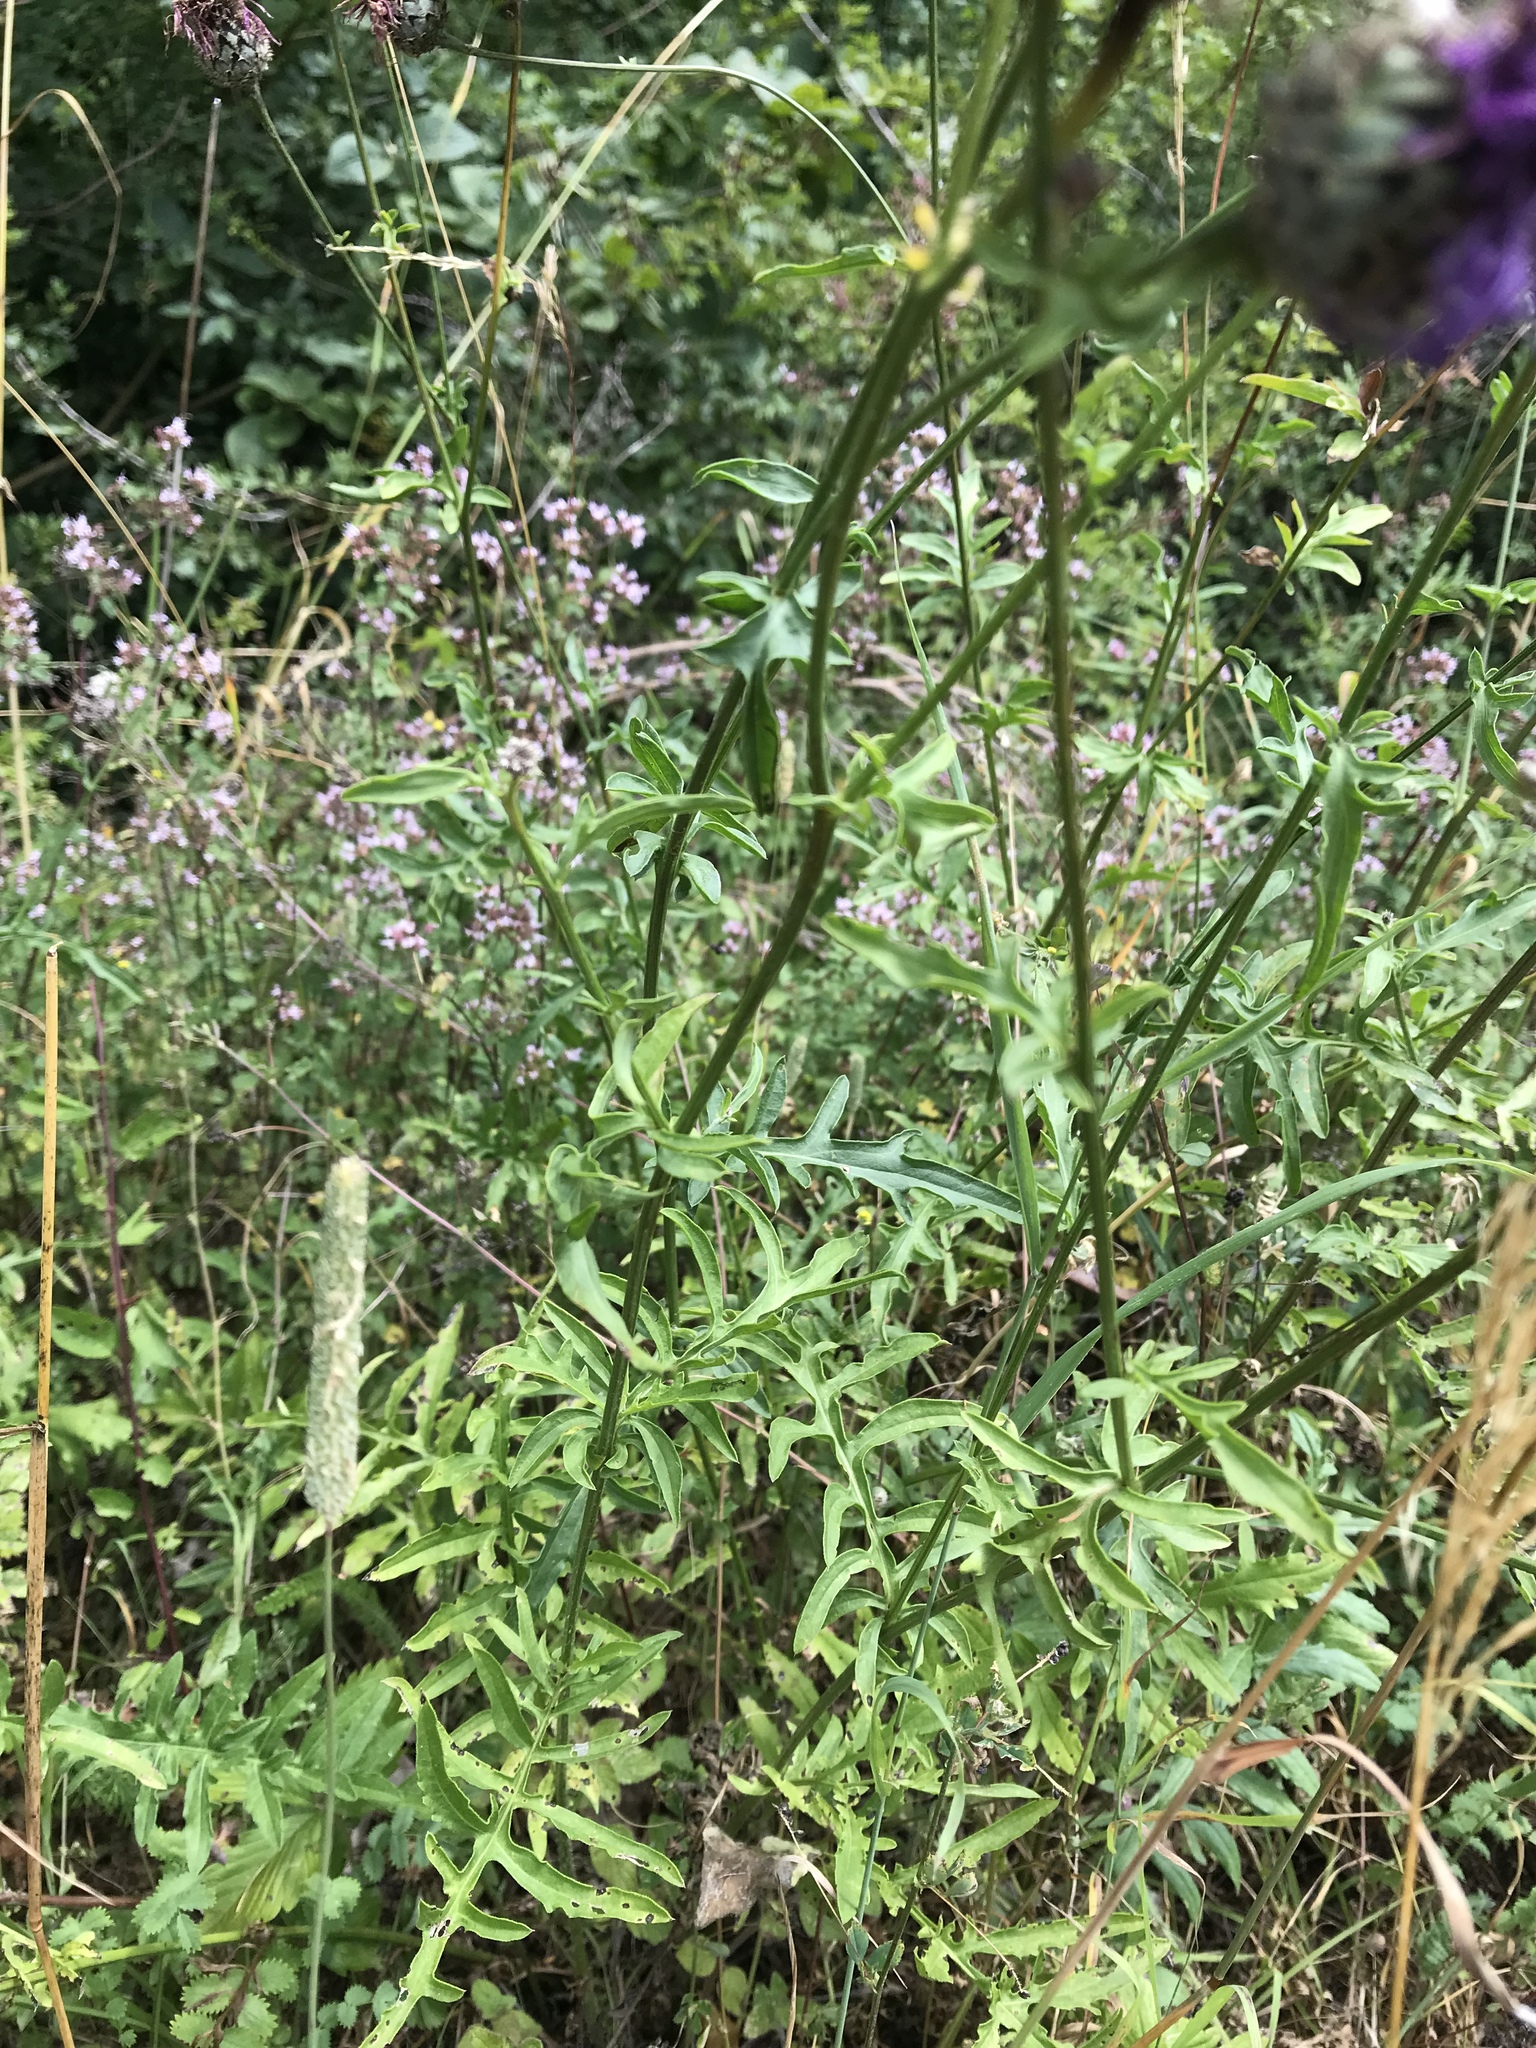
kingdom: Plantae
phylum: Tracheophyta
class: Magnoliopsida
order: Asterales
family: Asteraceae
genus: Centaurea
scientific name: Centaurea scabiosa
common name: Greater knapweed
